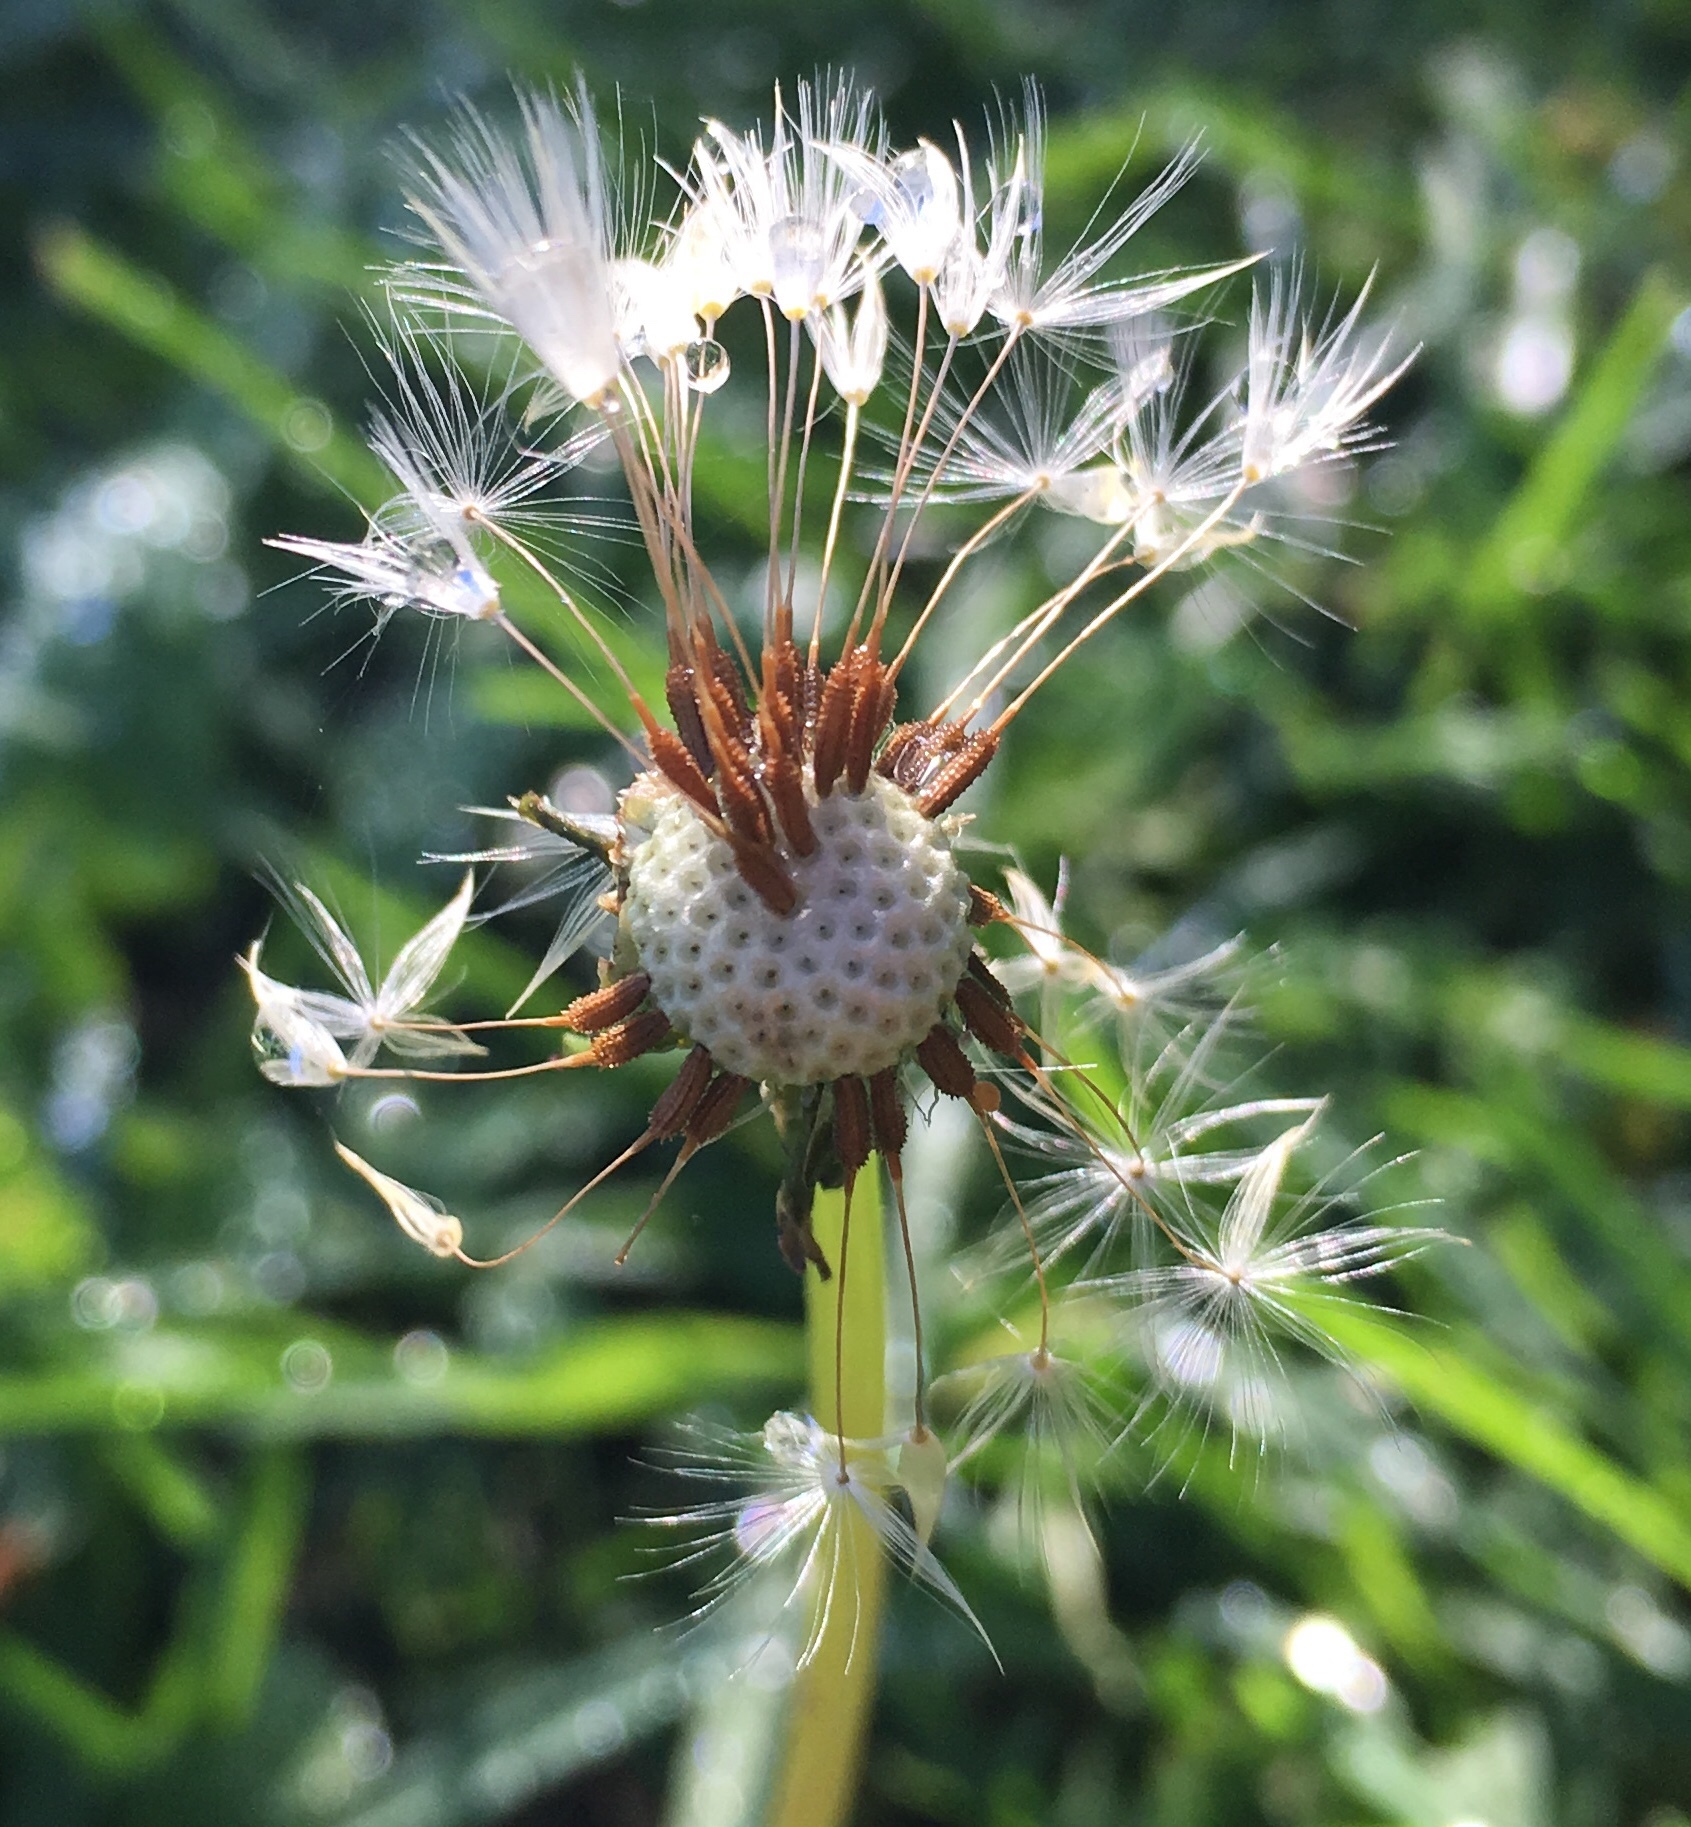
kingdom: Plantae
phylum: Tracheophyta
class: Magnoliopsida
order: Asterales
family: Asteraceae
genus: Taraxacum
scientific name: Taraxacum erythrospermum
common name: Rock dandelion
